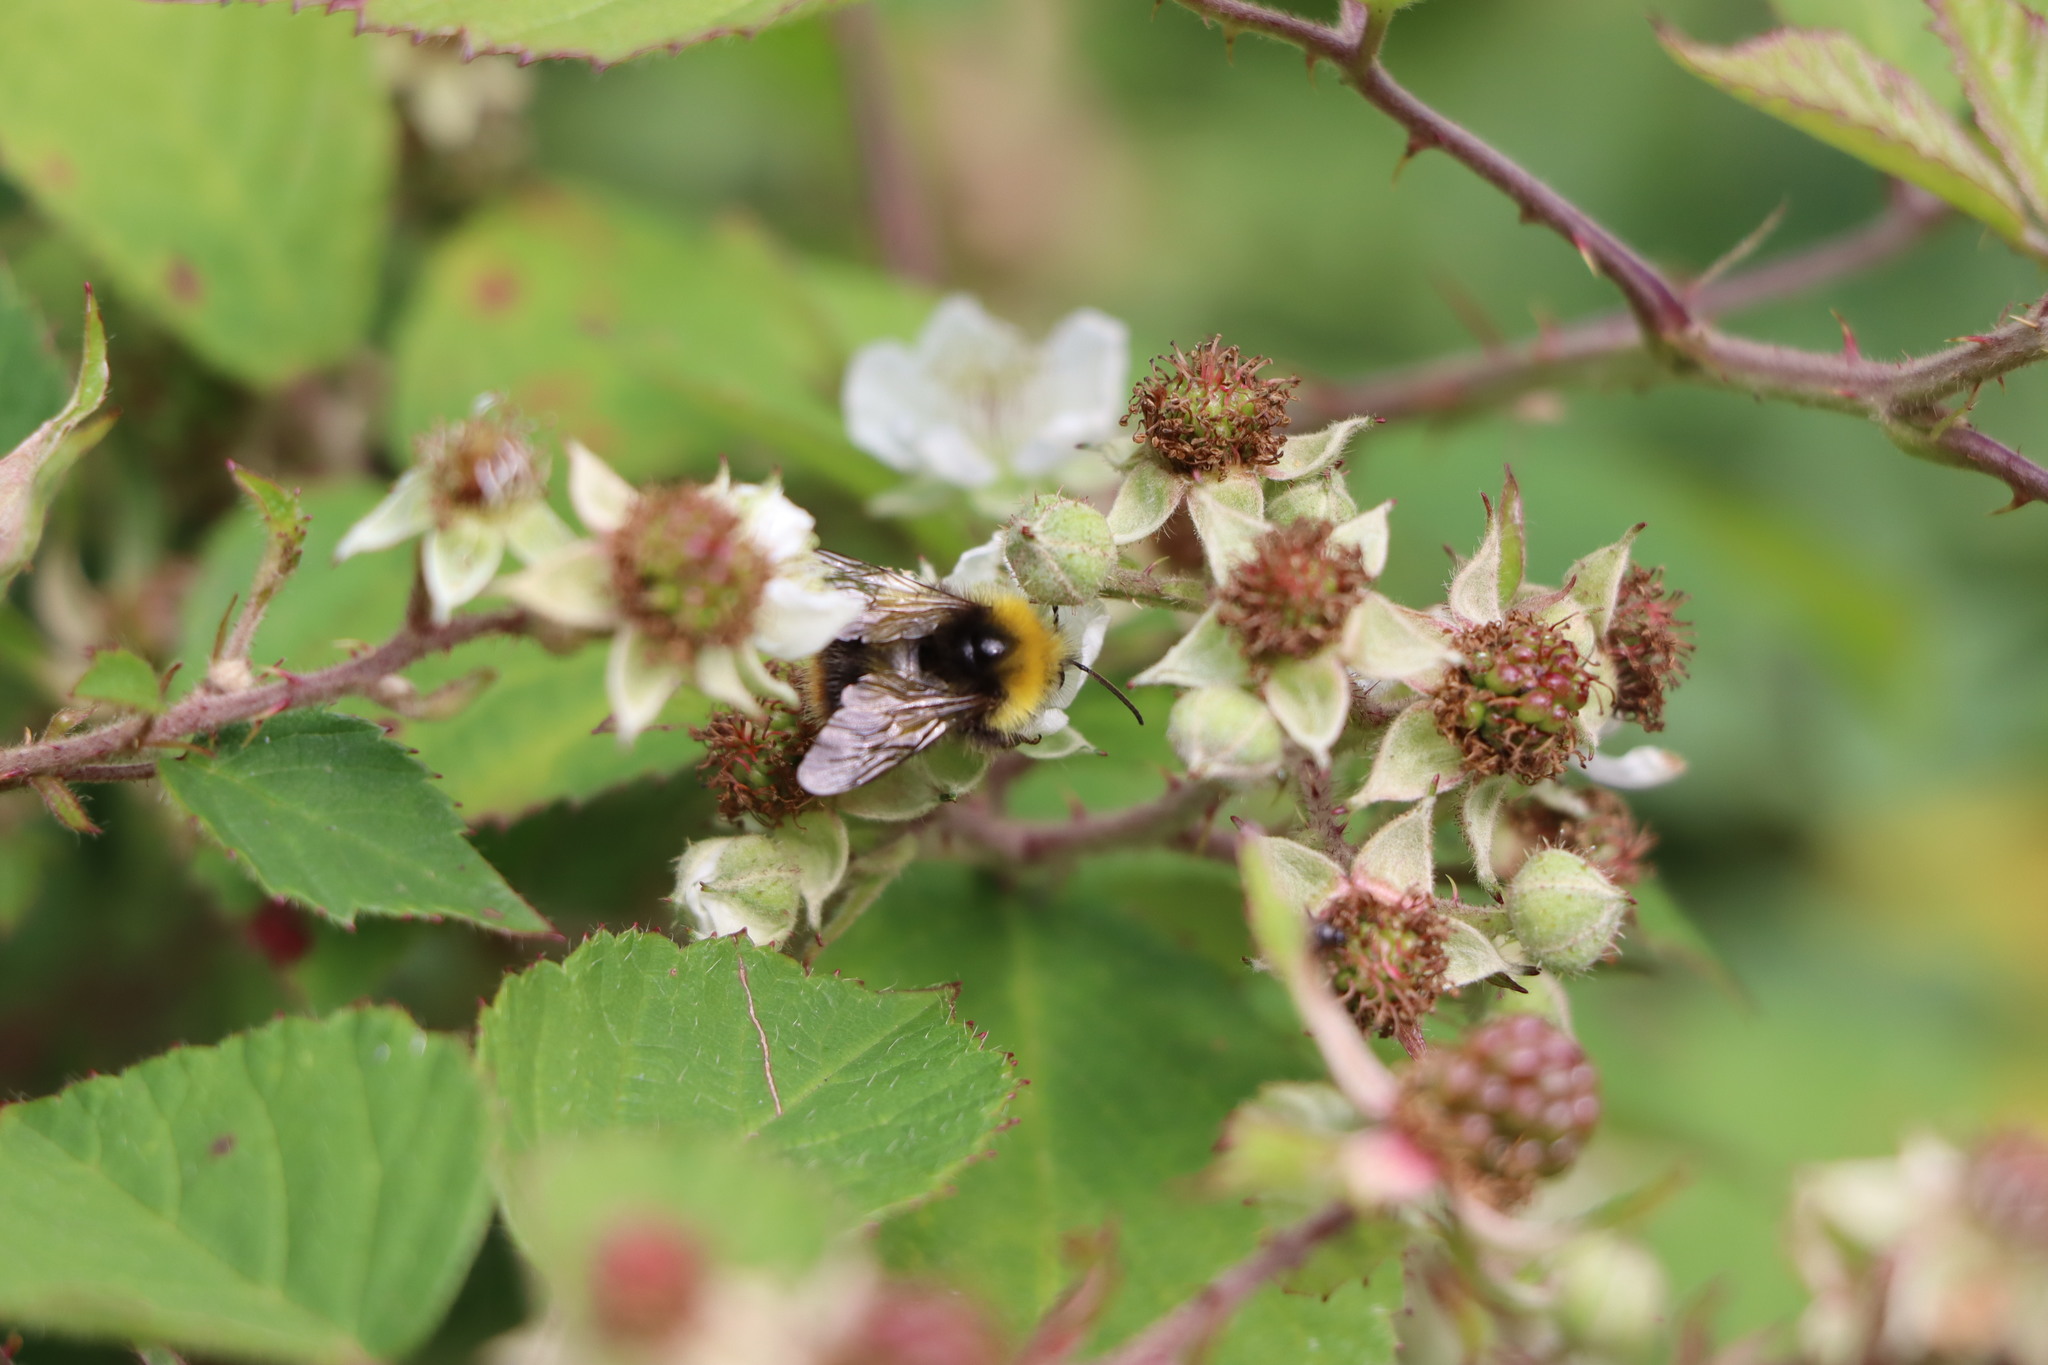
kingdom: Animalia
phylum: Arthropoda
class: Insecta
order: Hymenoptera
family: Apidae
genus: Bombus
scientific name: Bombus pratorum
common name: Early humble-bee
